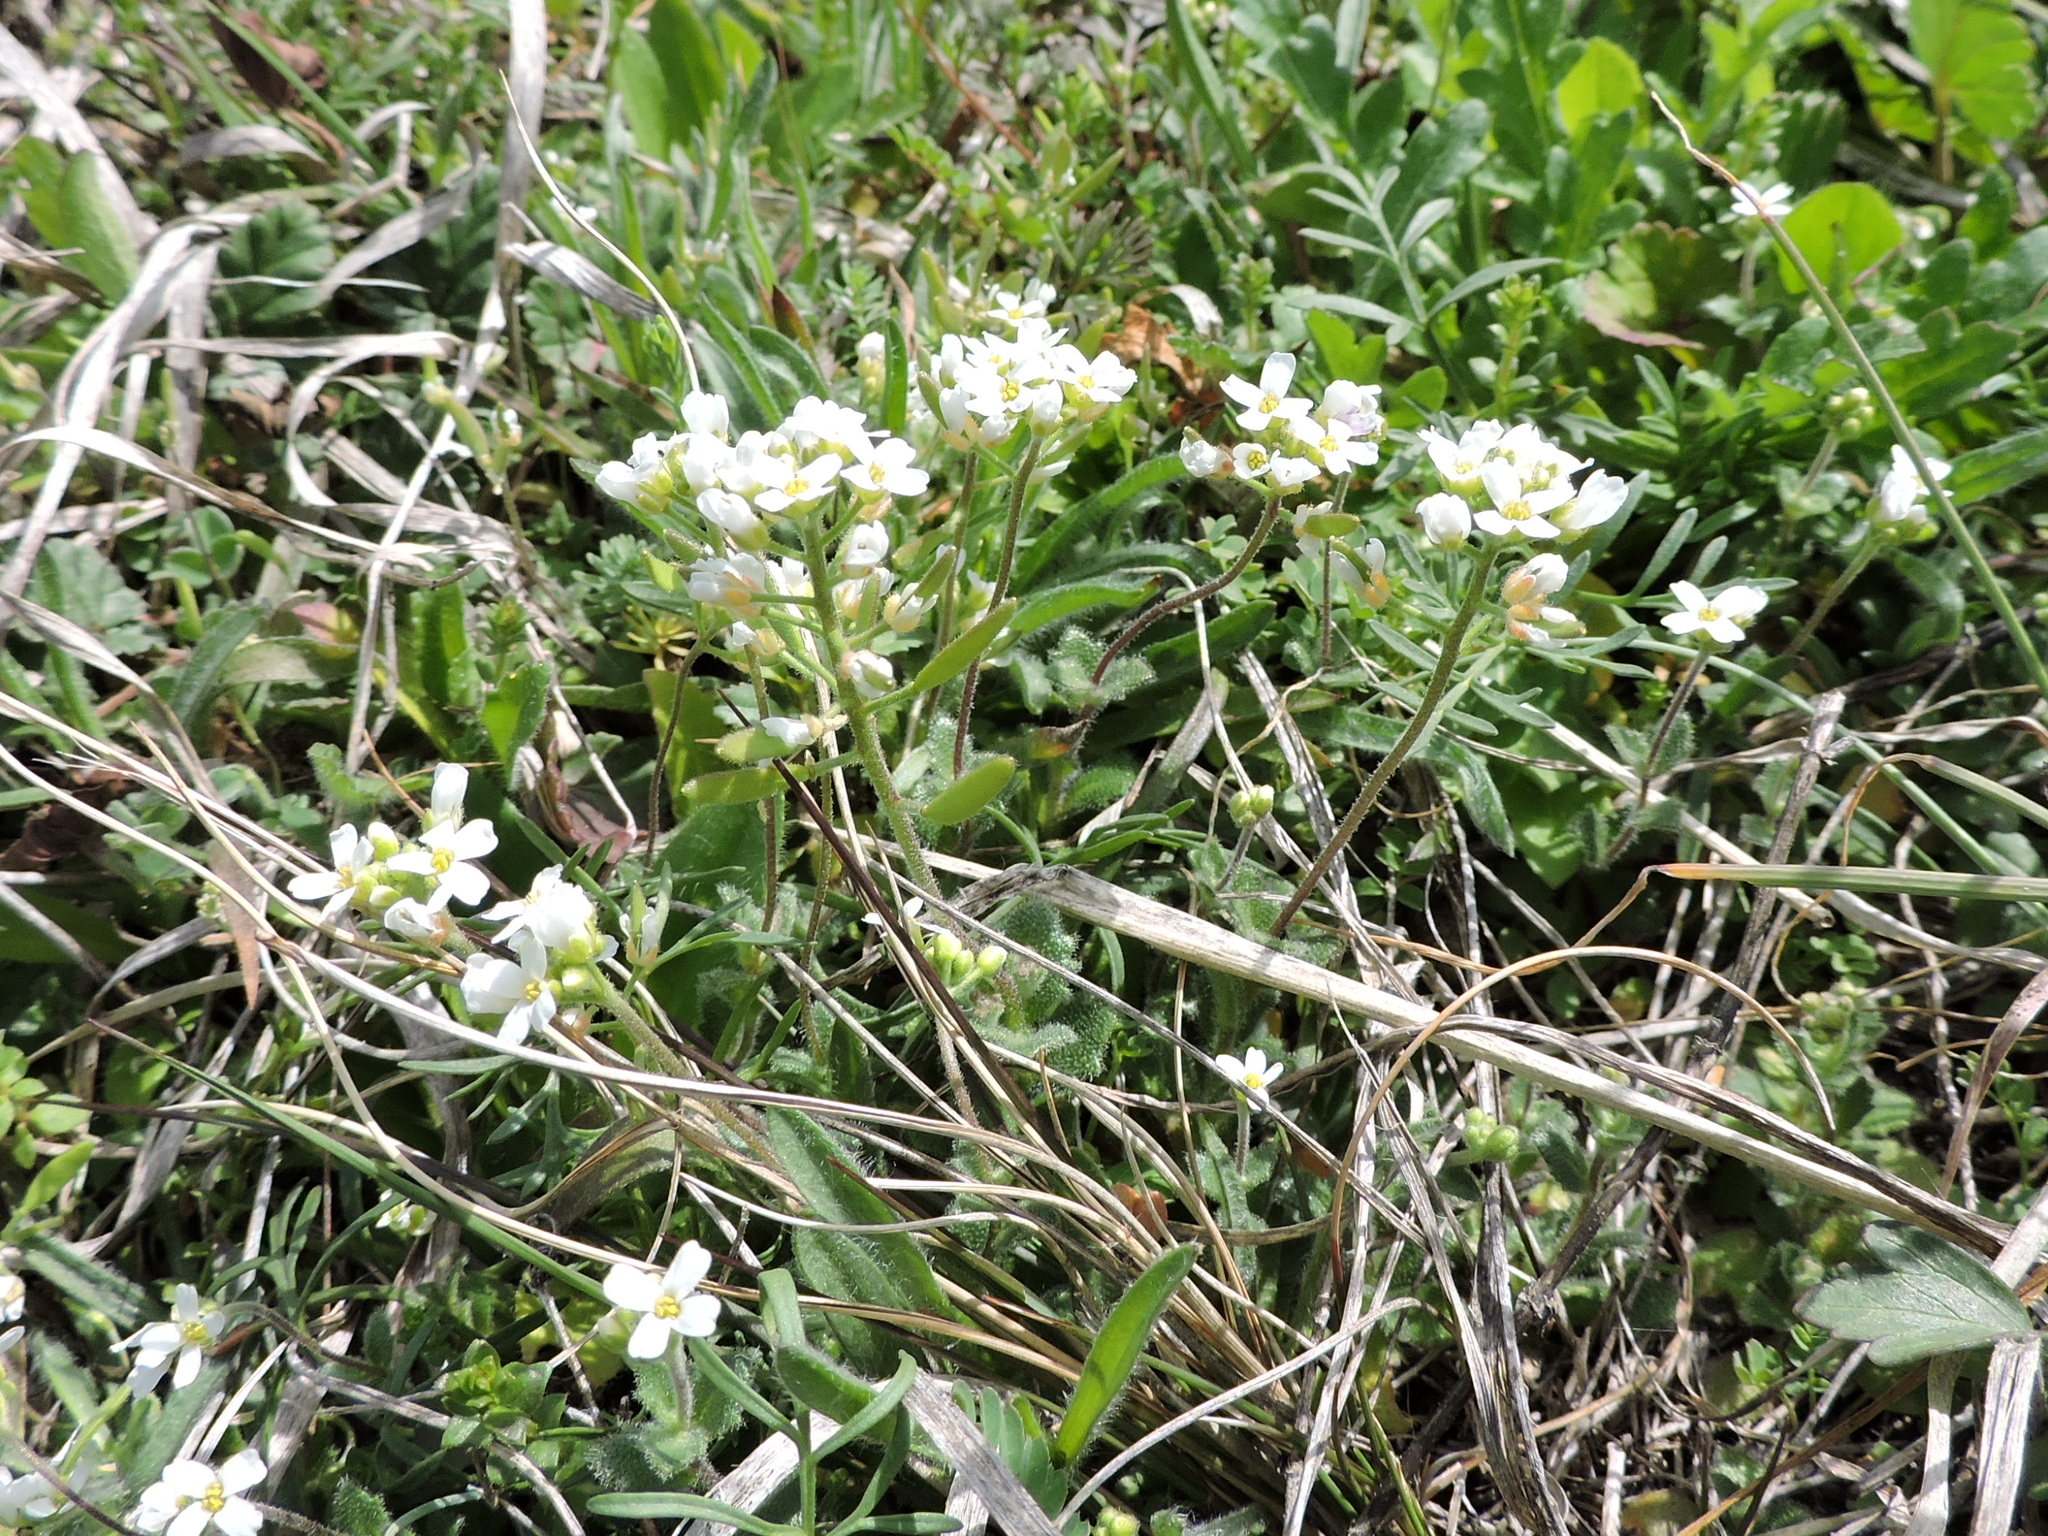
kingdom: Plantae
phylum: Tracheophyta
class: Magnoliopsida
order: Brassicales
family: Brassicaceae
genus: Tomostima
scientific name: Tomostima cuneifolia
